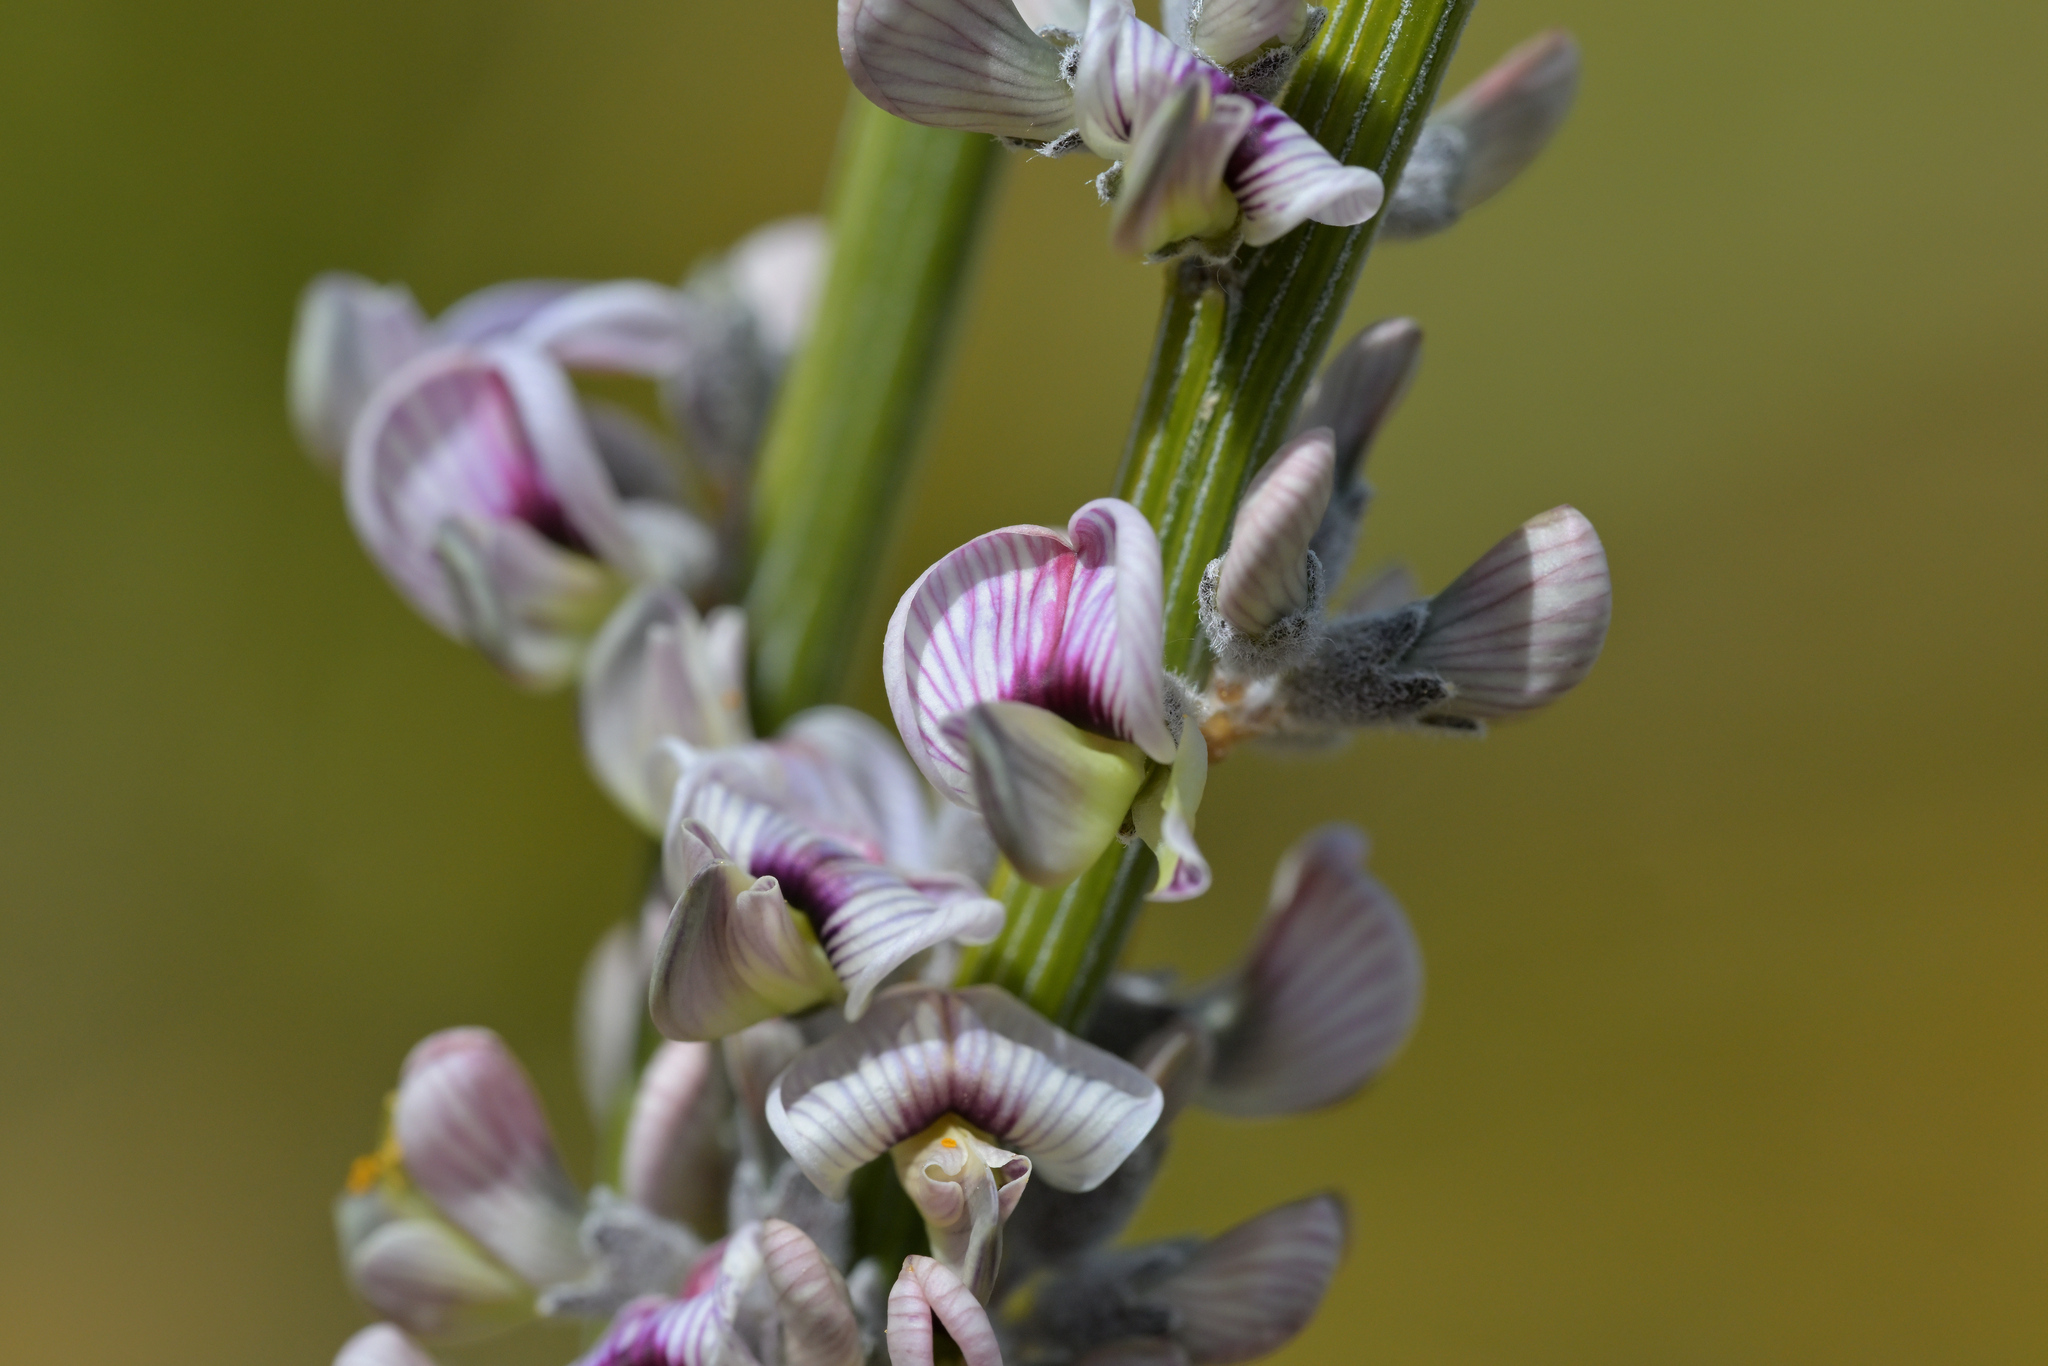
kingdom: Plantae
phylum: Tracheophyta
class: Magnoliopsida
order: Fabales
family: Fabaceae
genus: Carmichaelia
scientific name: Carmichaelia crassicaulis
